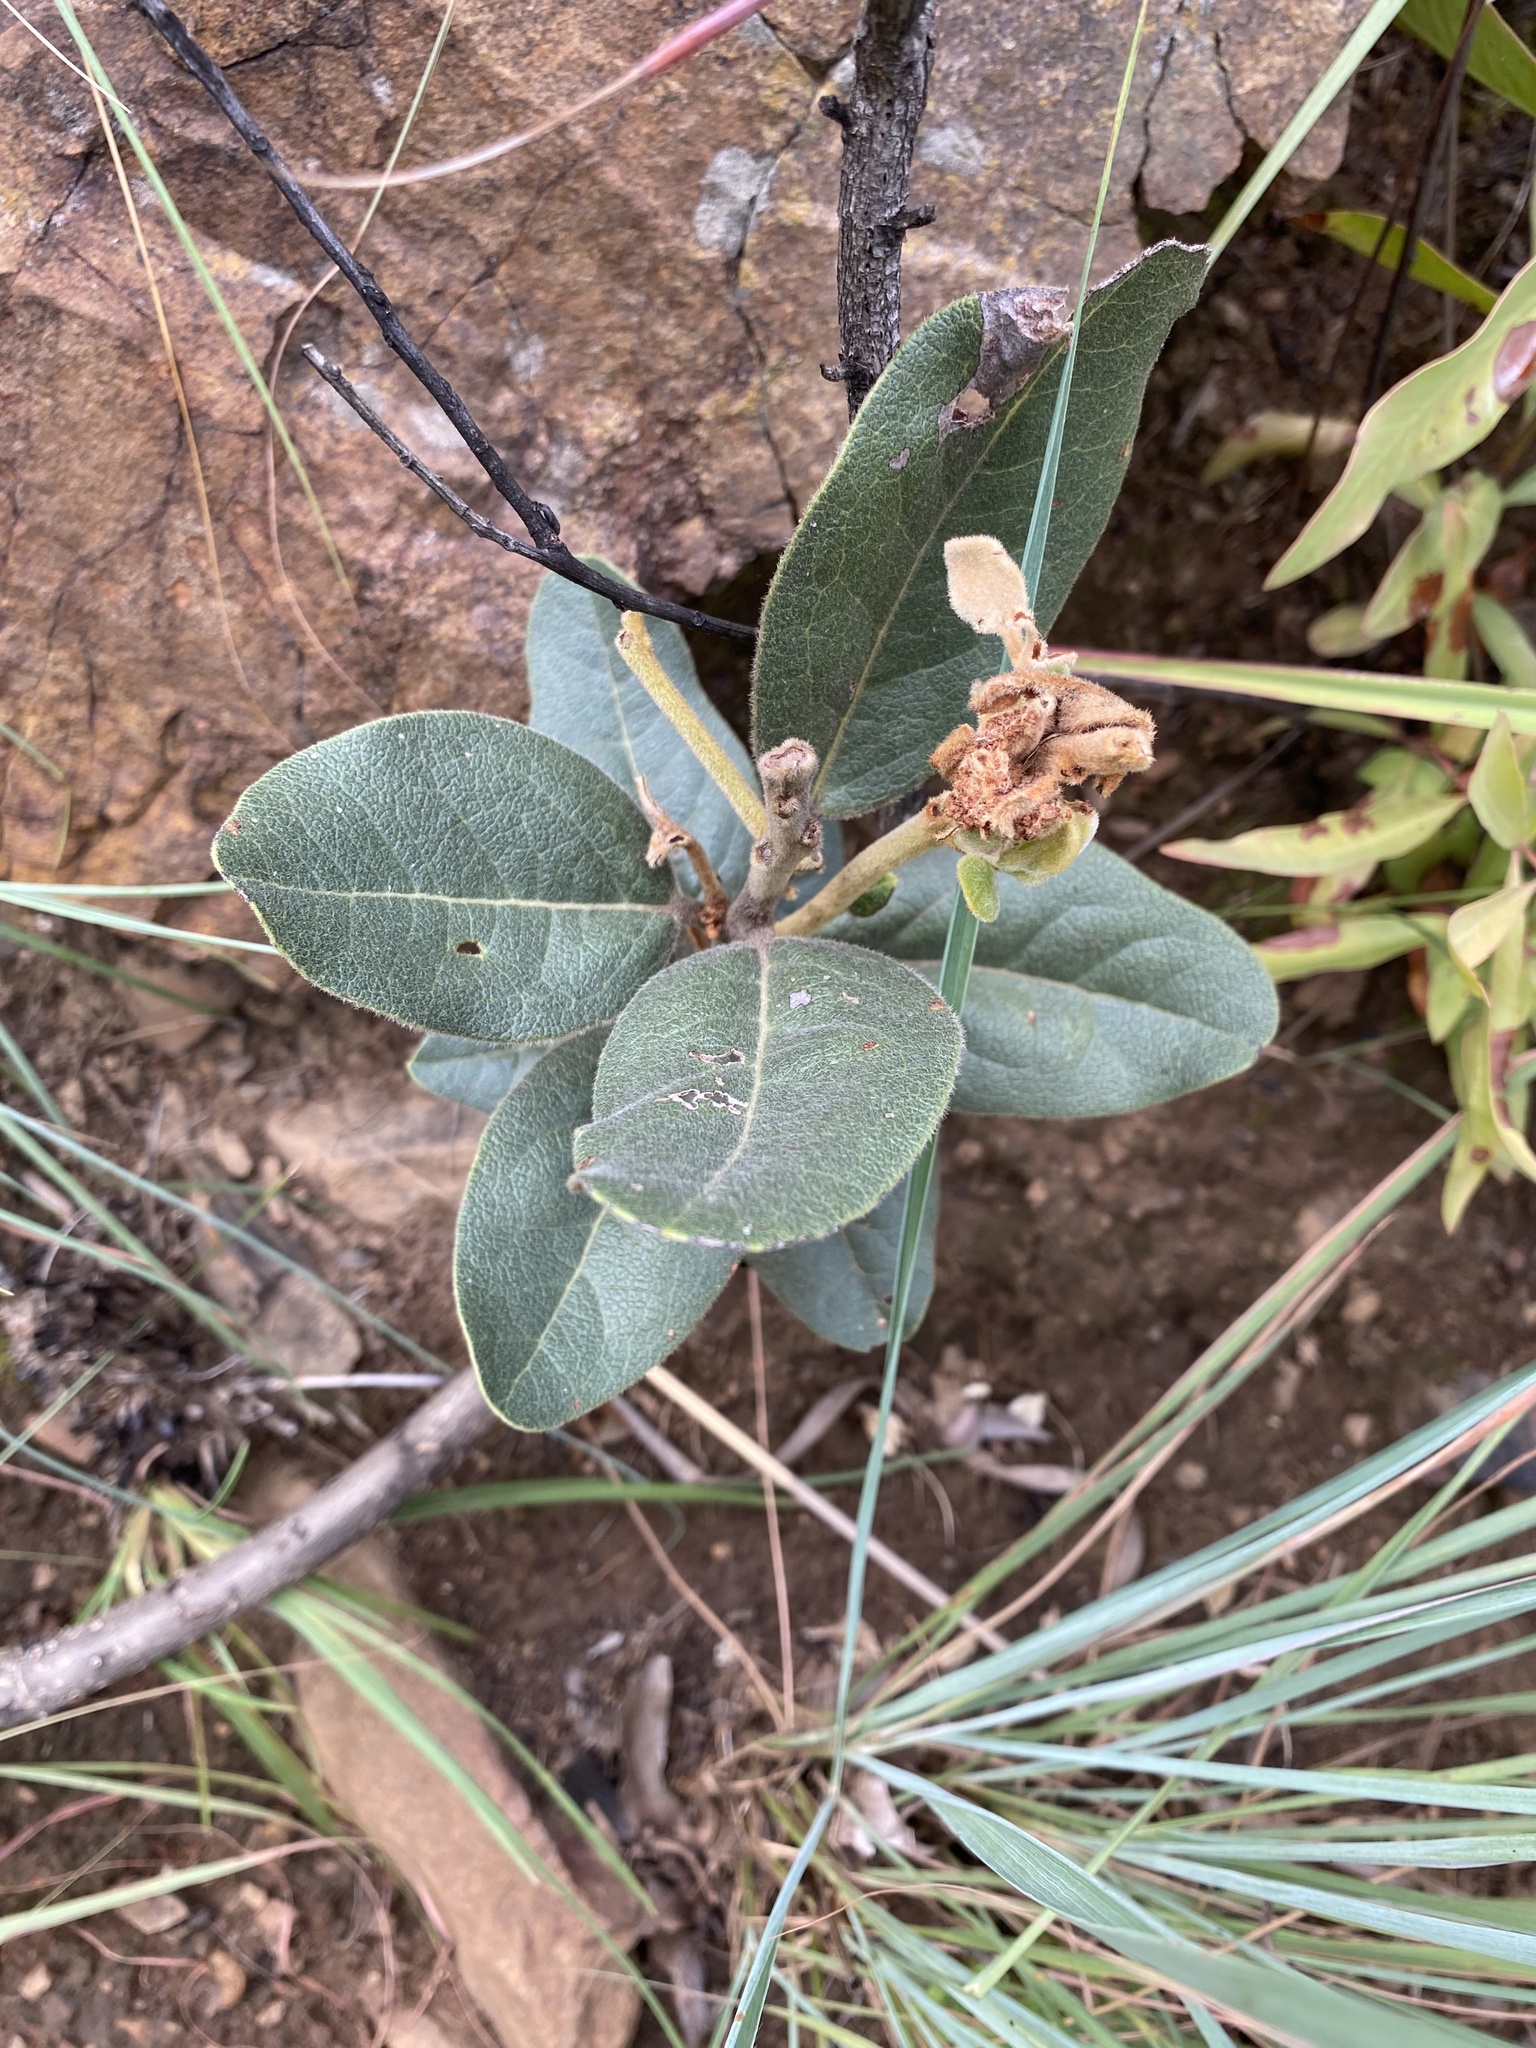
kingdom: Plantae
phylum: Tracheophyta
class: Magnoliopsida
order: Gentianales
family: Apocynaceae
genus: Acokanthera
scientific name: Acokanthera rotundata
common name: Round-leaved poison-bush
